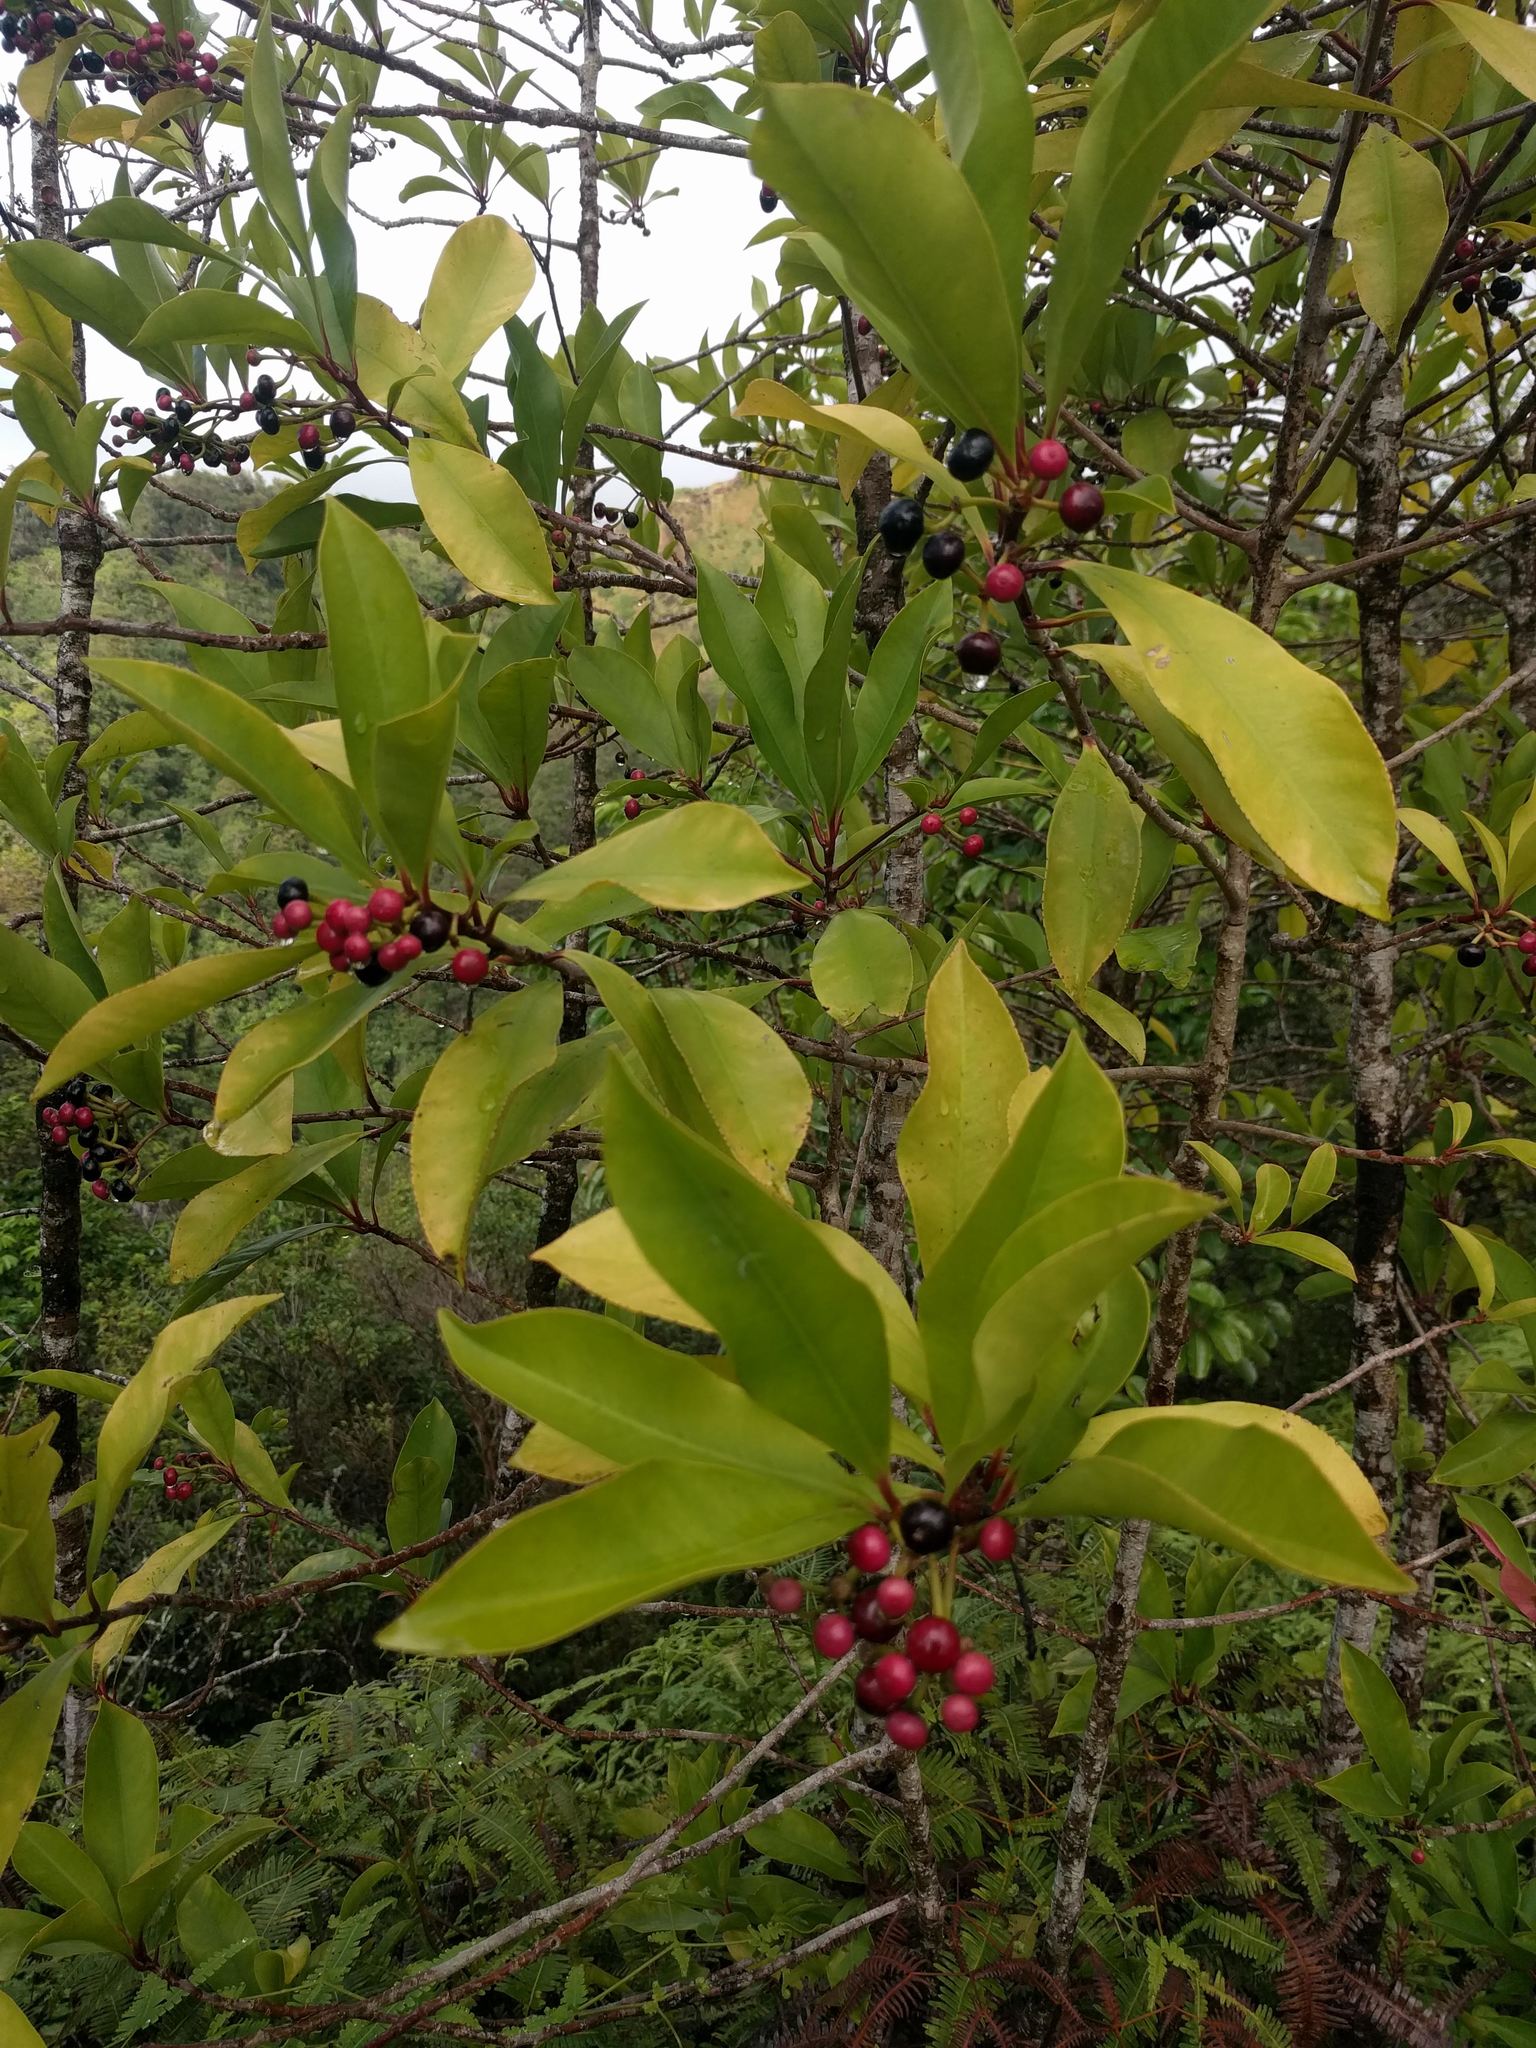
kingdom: Plantae
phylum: Tracheophyta
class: Magnoliopsida
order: Ericales
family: Primulaceae
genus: Ardisia
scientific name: Ardisia elliptica
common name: Shoebutton
